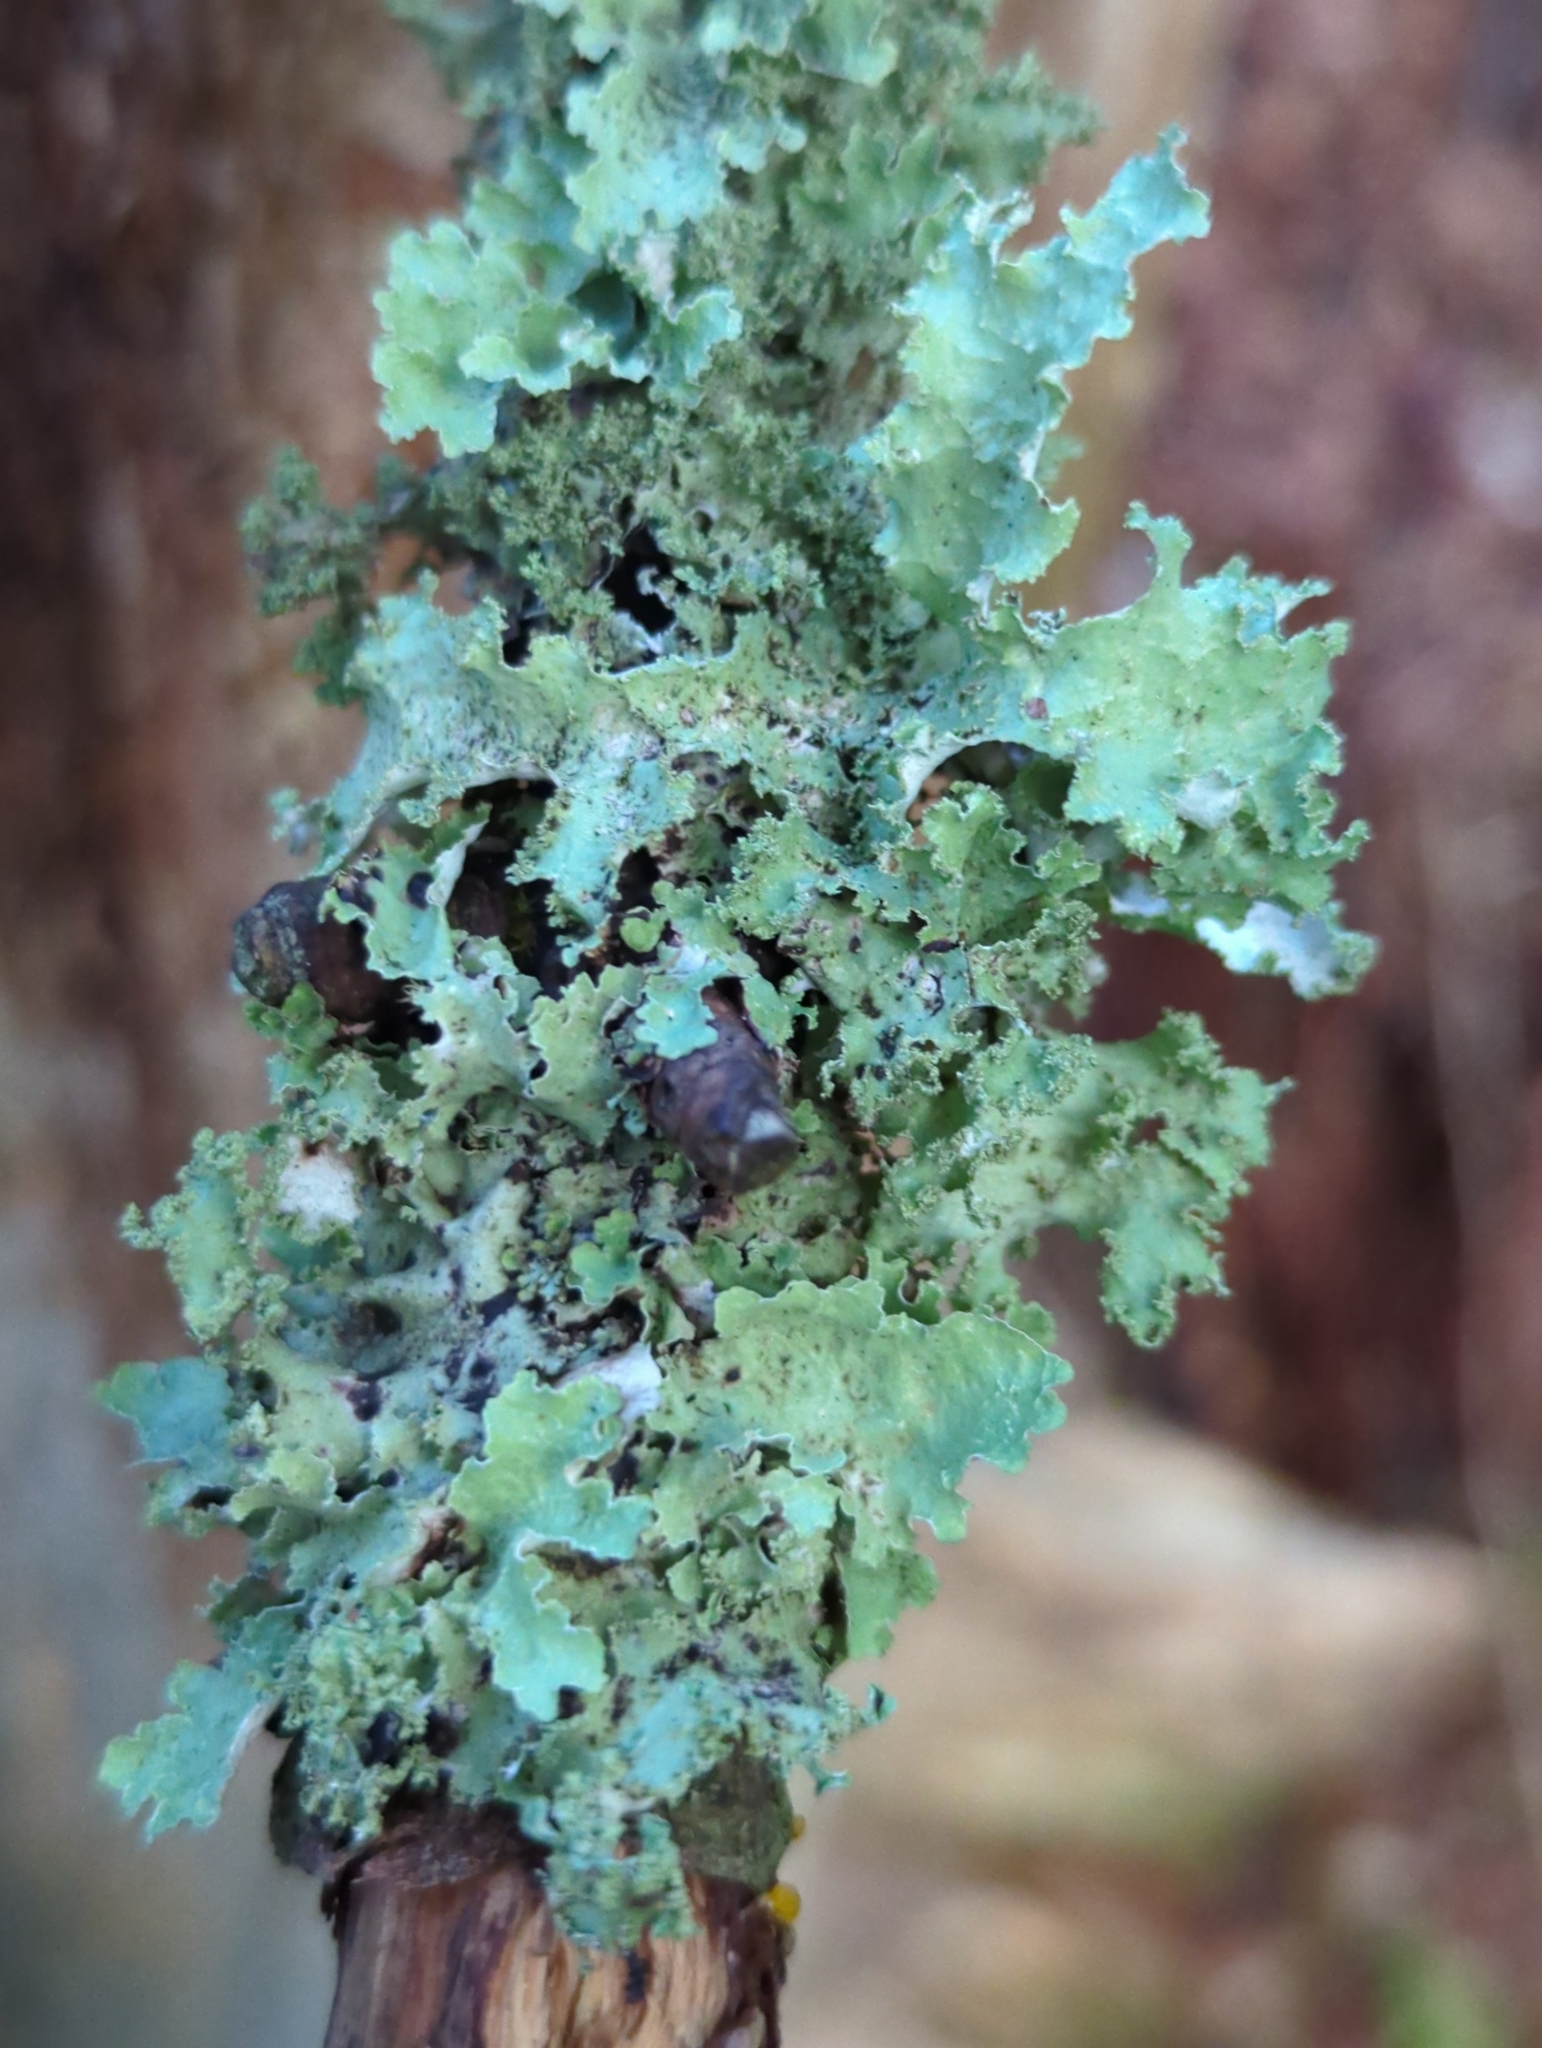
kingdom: Fungi
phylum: Ascomycota
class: Lecanoromycetes
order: Lecanorales
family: Parmeliaceae
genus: Platismatia
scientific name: Platismatia glauca
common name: Varied rag lichen
